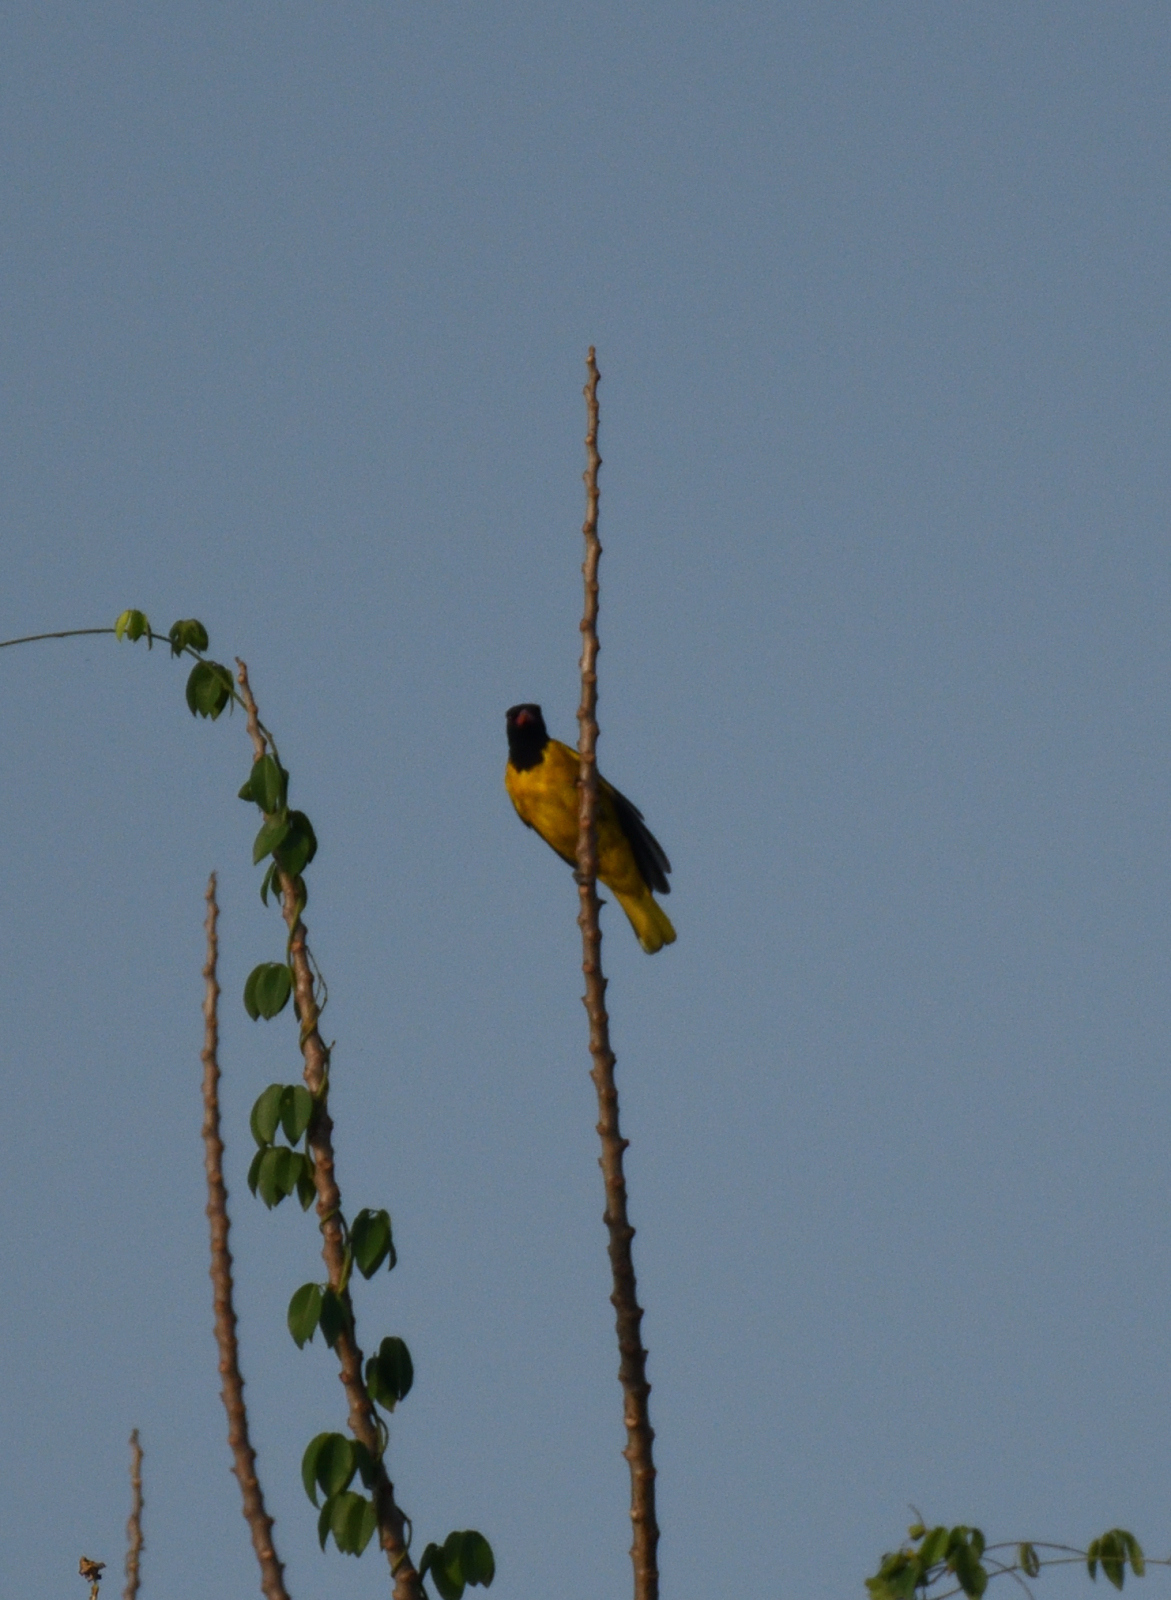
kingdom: Animalia
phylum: Chordata
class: Aves
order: Passeriformes
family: Oriolidae
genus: Oriolus
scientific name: Oriolus xanthornus
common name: Black-hooded oriole
